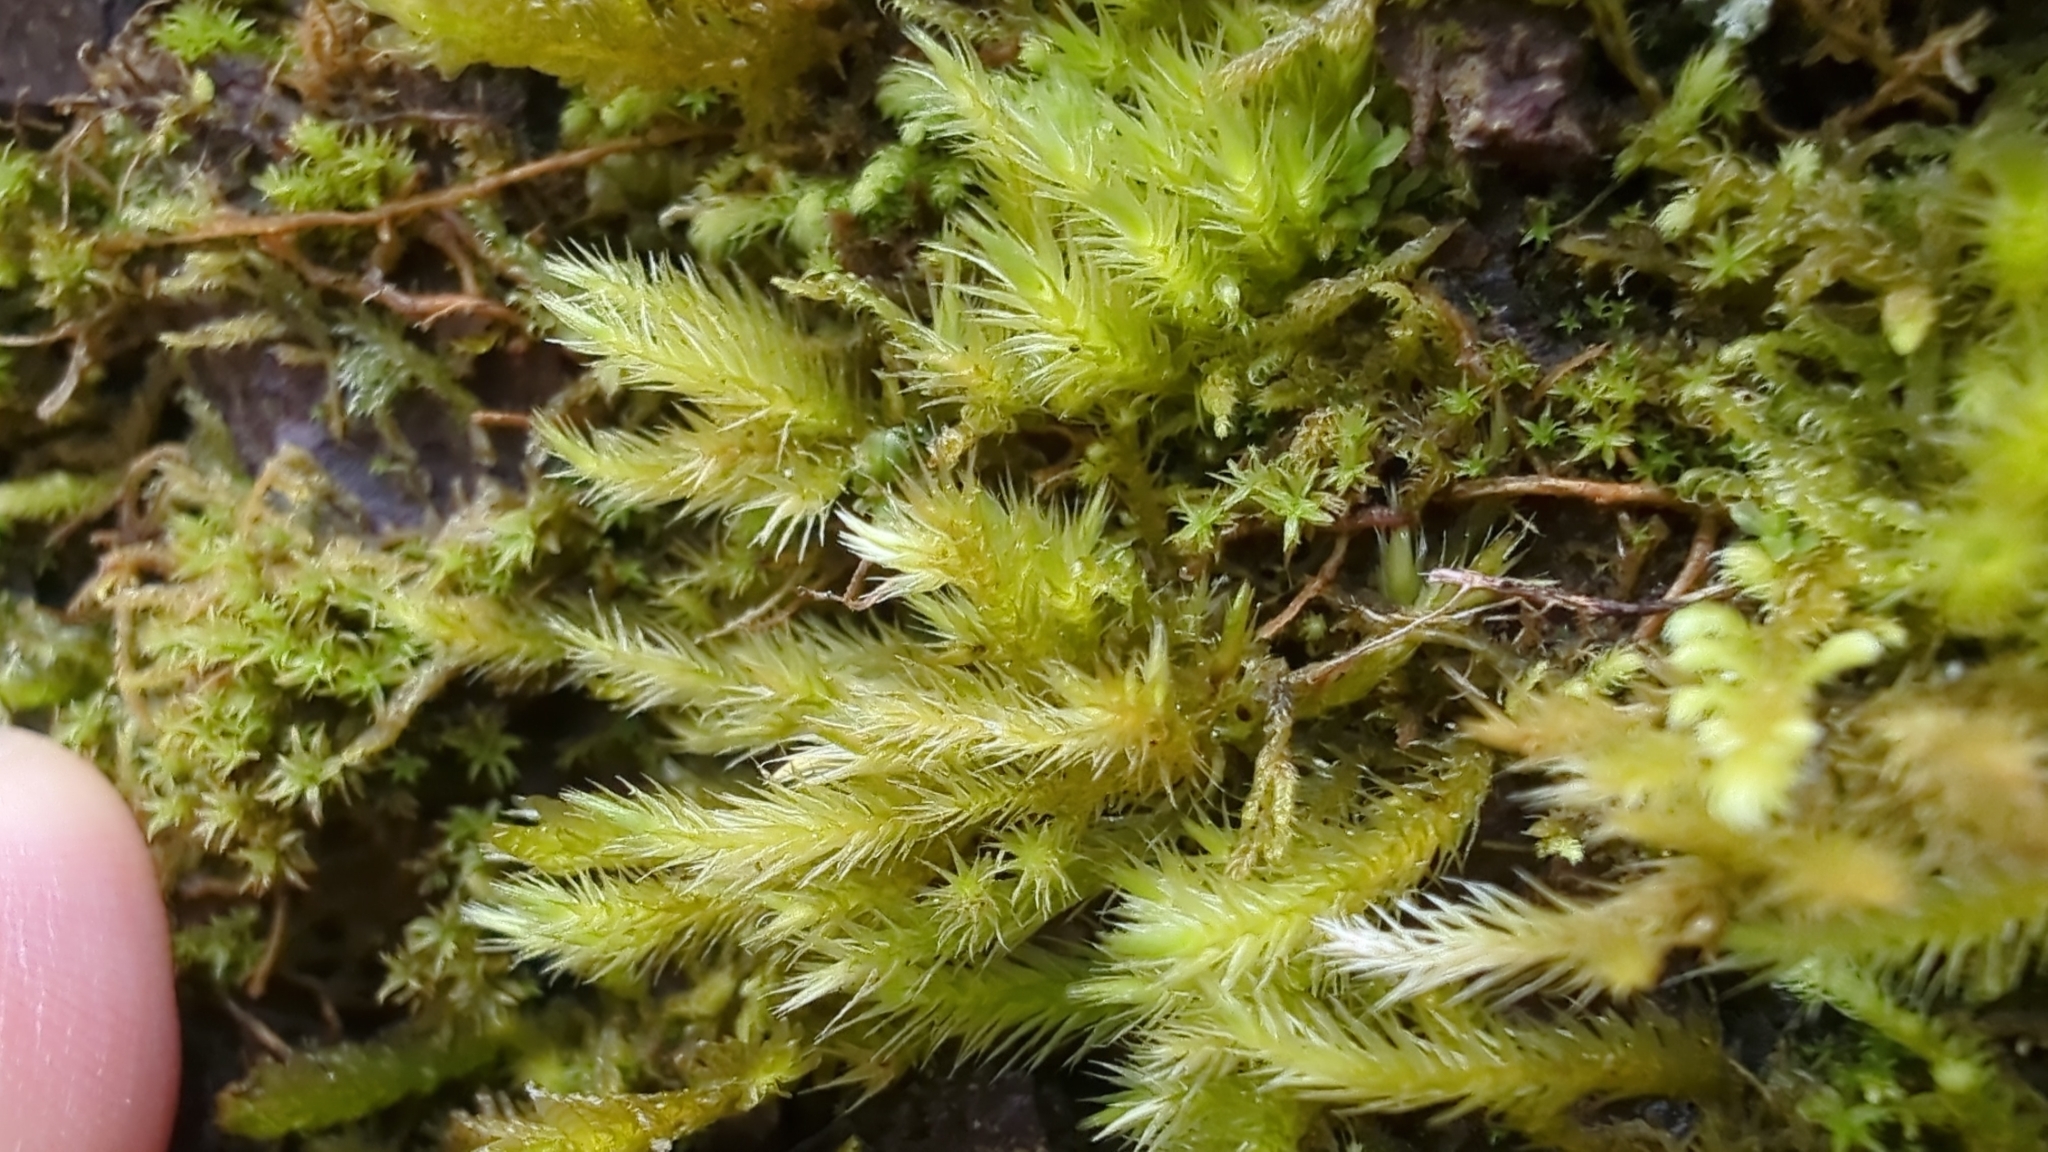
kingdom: Plantae
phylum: Bryophyta
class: Bryopsida
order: Hypnales
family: Brachytheciaceae
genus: Homalothecium
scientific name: Homalothecium fulgescens
